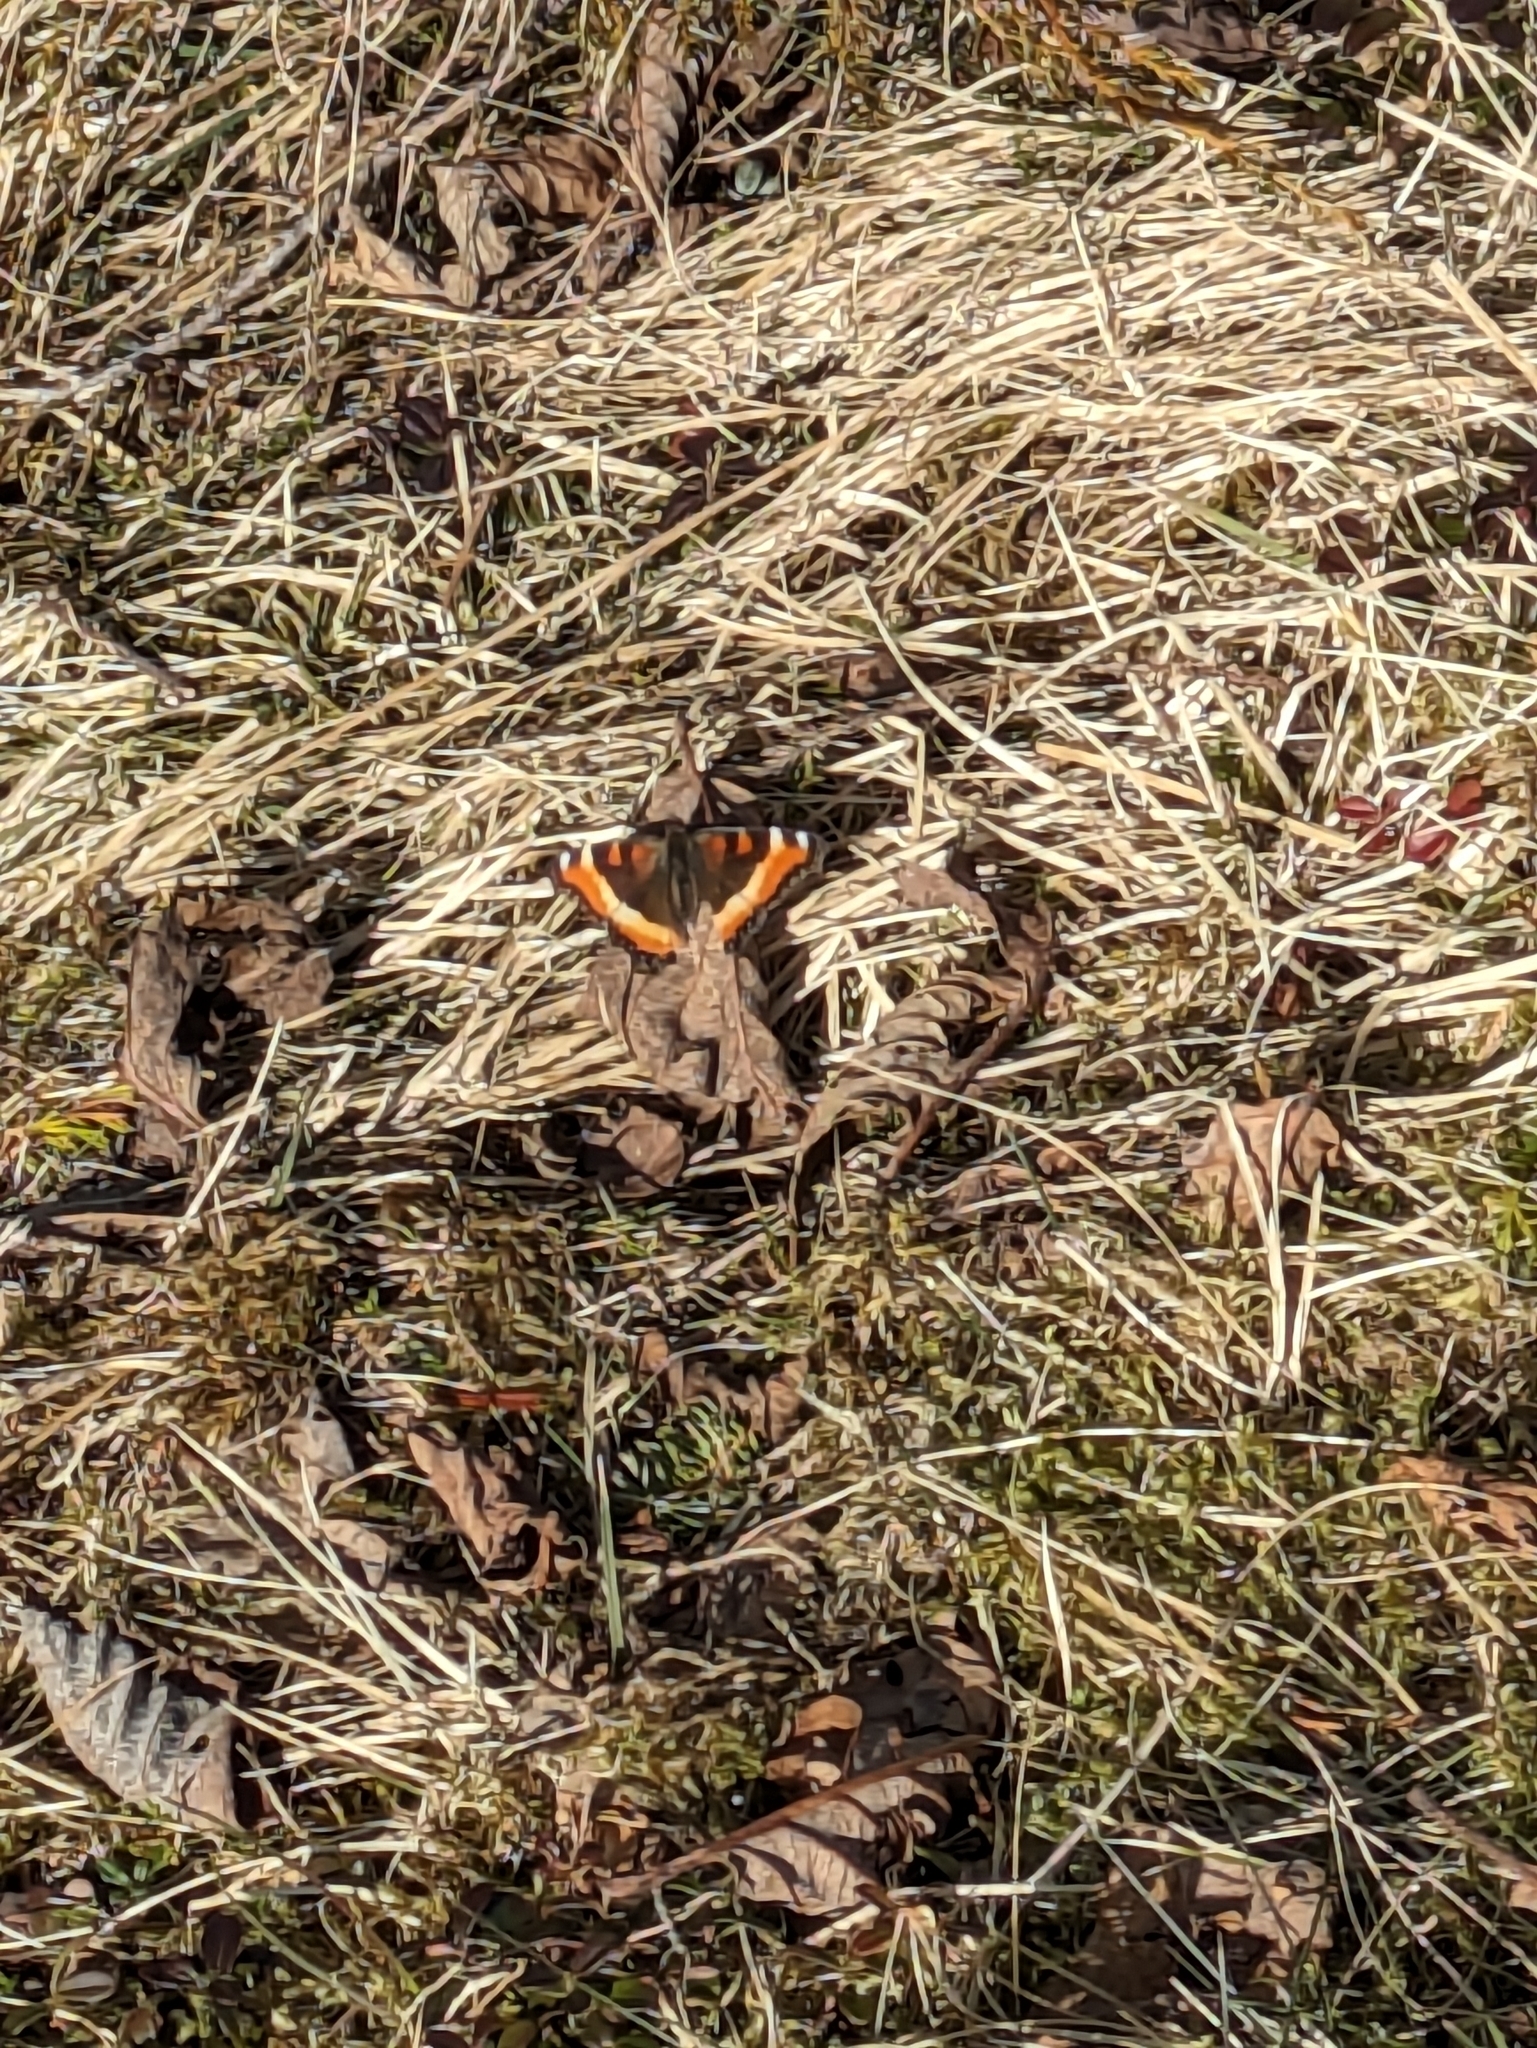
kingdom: Animalia
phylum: Arthropoda
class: Insecta
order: Lepidoptera
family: Nymphalidae
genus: Aglais
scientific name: Aglais milberti
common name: Milbert's tortoiseshell
